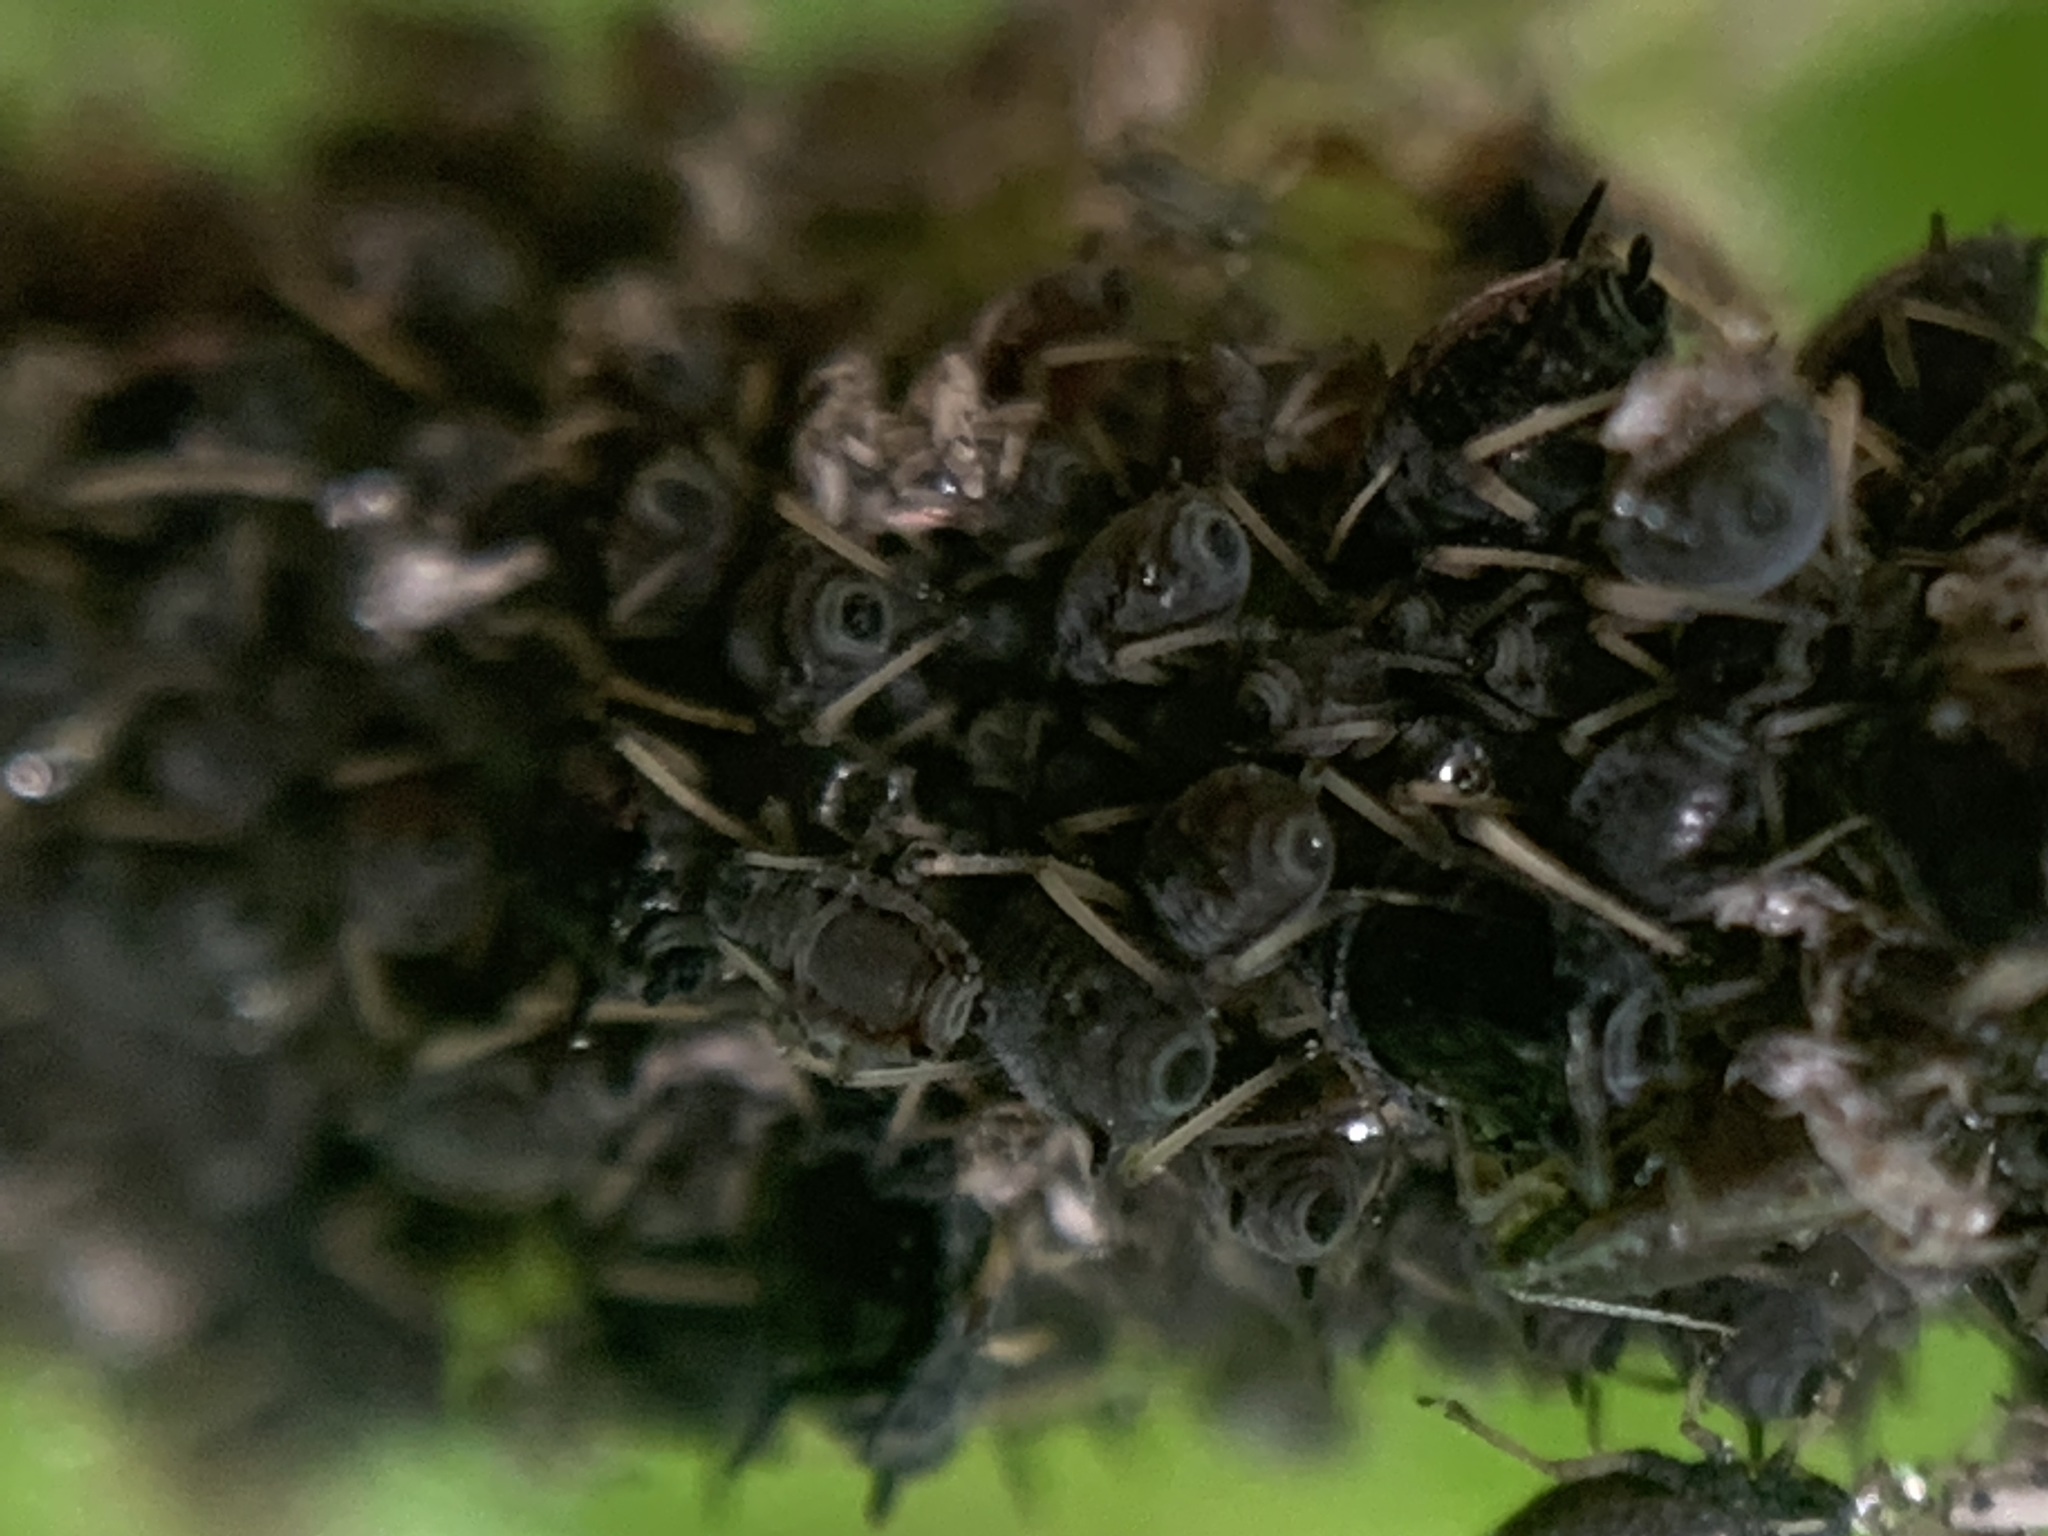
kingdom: Plantae
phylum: Tracheophyta
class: Magnoliopsida
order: Saxifragales
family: Grossulariaceae
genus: Ribes
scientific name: Ribes magellanicum
